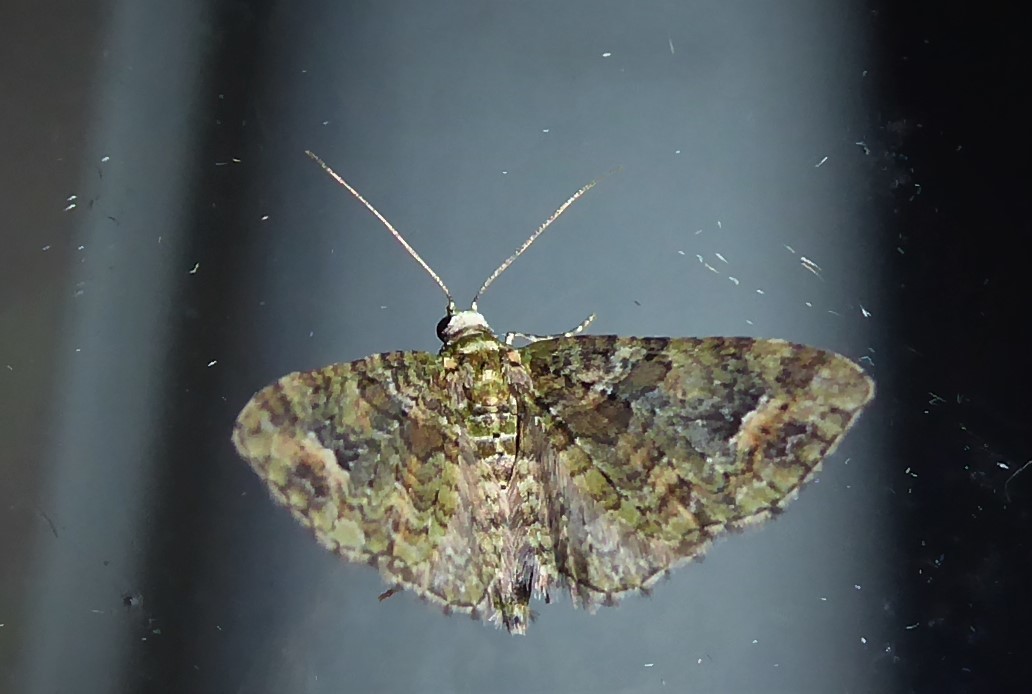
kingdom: Animalia
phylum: Arthropoda
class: Insecta
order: Lepidoptera
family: Geometridae
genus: Idaea
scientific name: Idaea mutanda
